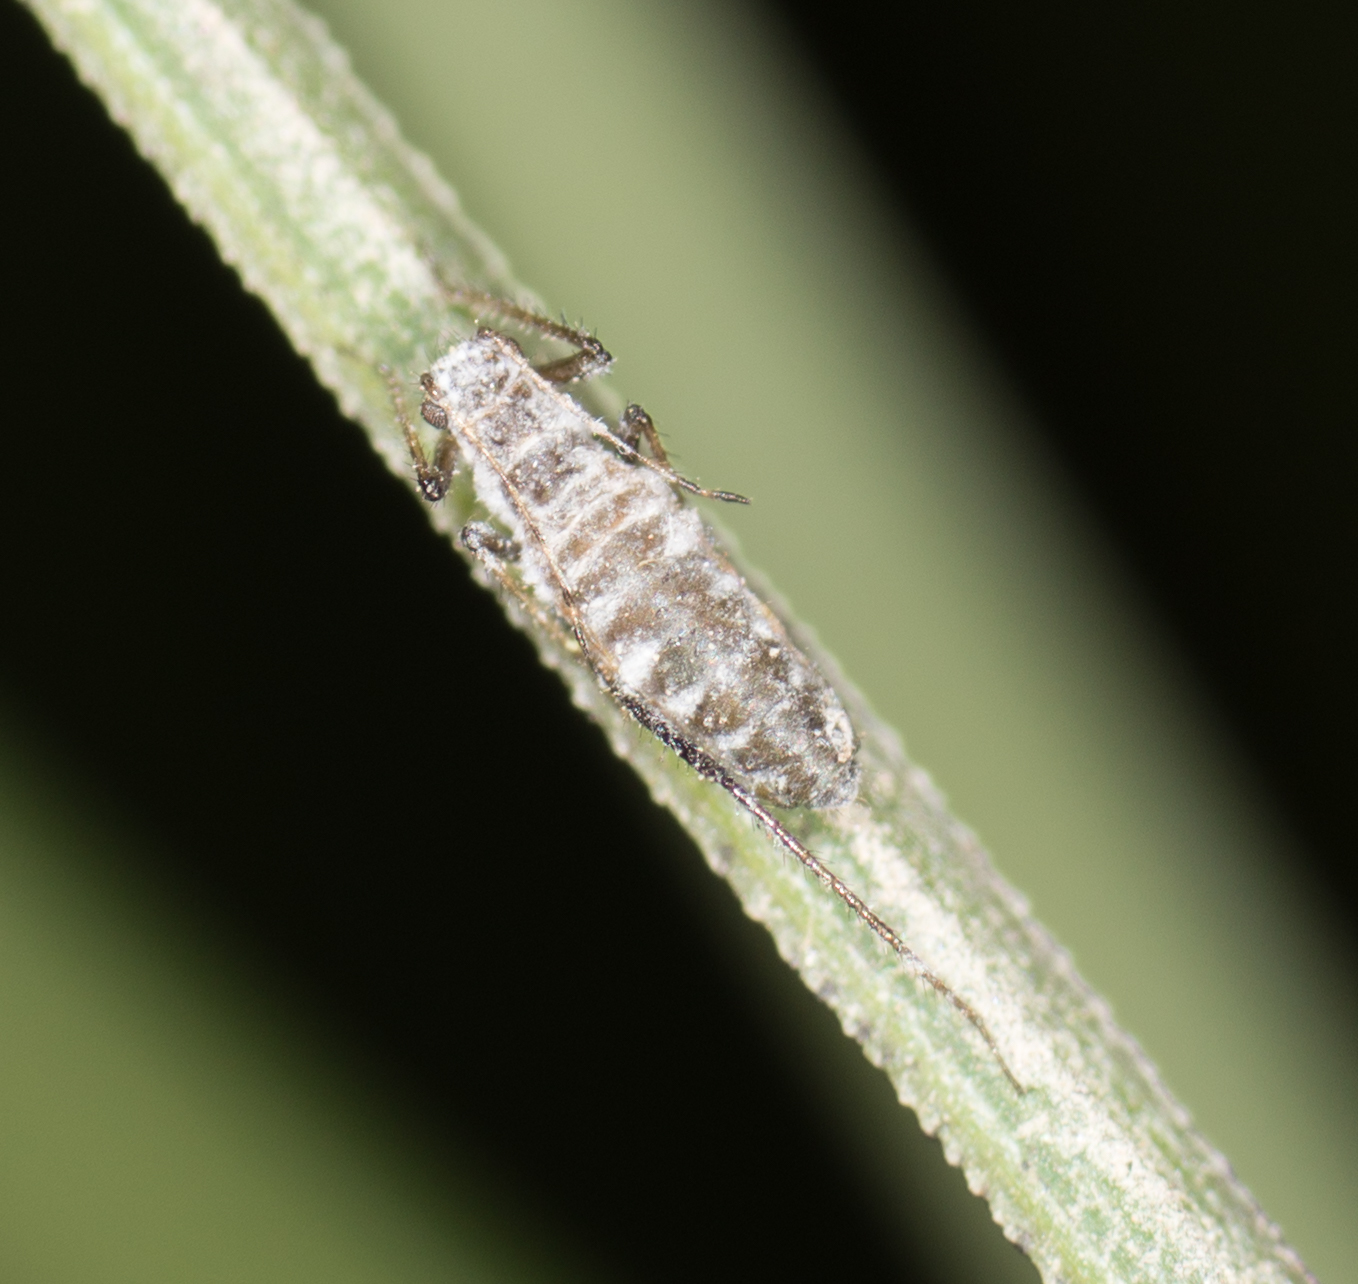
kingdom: Animalia
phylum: Arthropoda
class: Insecta
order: Hemiptera
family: Aphididae
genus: Eulachnus
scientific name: Eulachnus rileyi
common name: Active gray pine needle aphid
